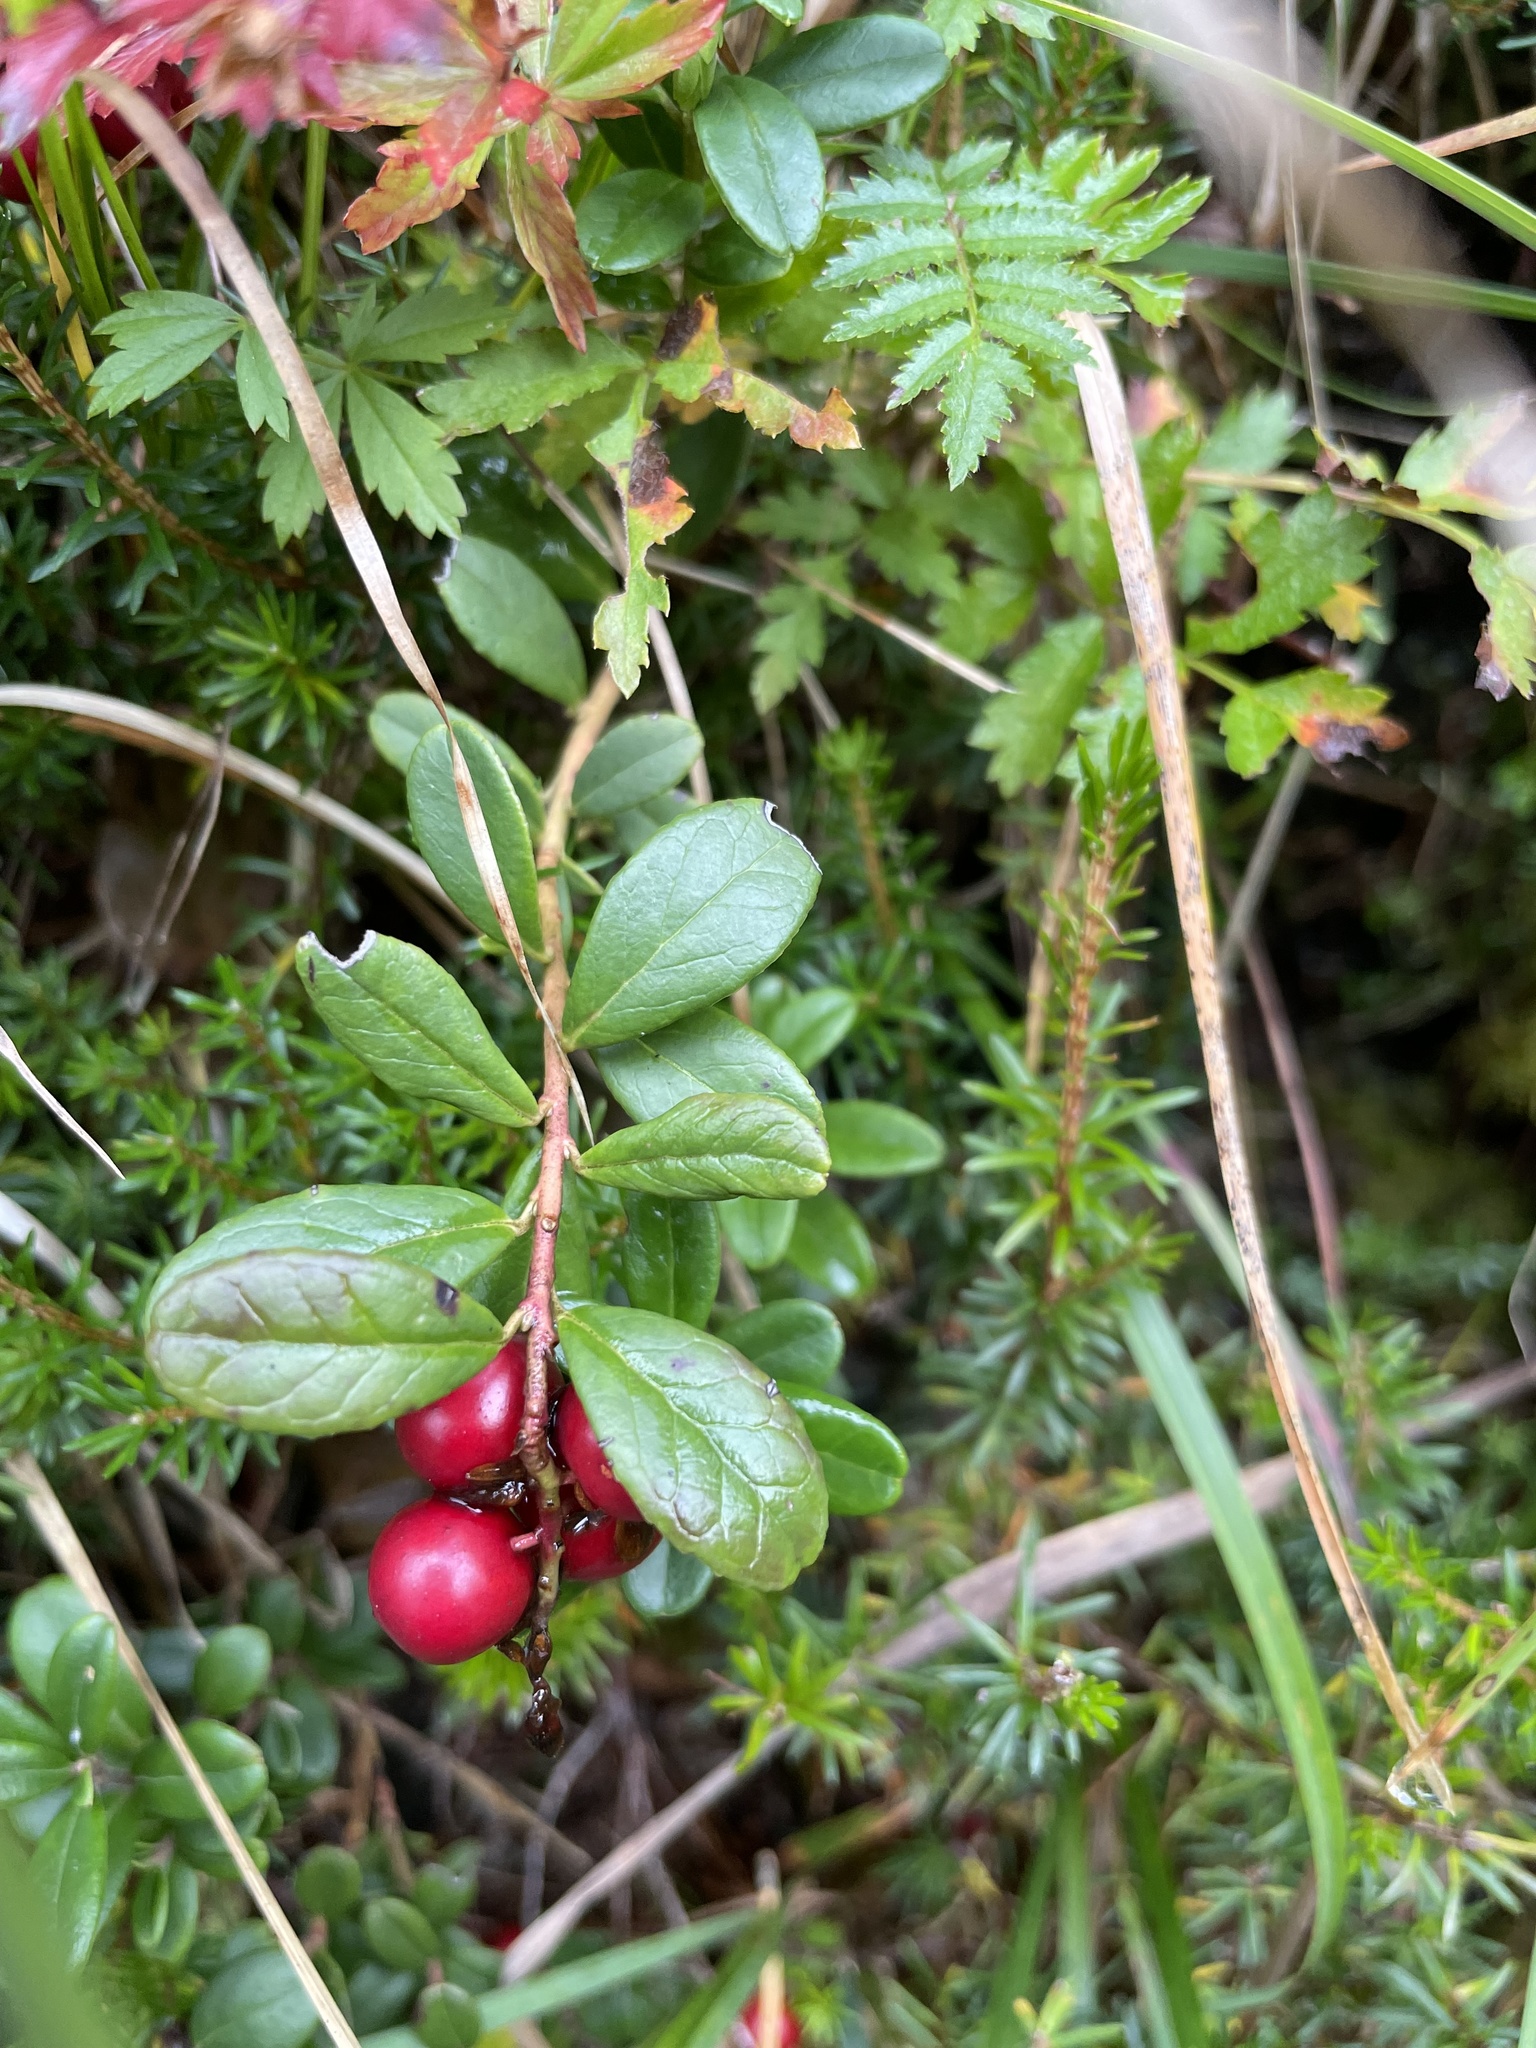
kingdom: Plantae
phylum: Tracheophyta
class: Magnoliopsida
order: Ericales
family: Ericaceae
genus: Vaccinium
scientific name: Vaccinium vitis-idaea
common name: Cowberry
